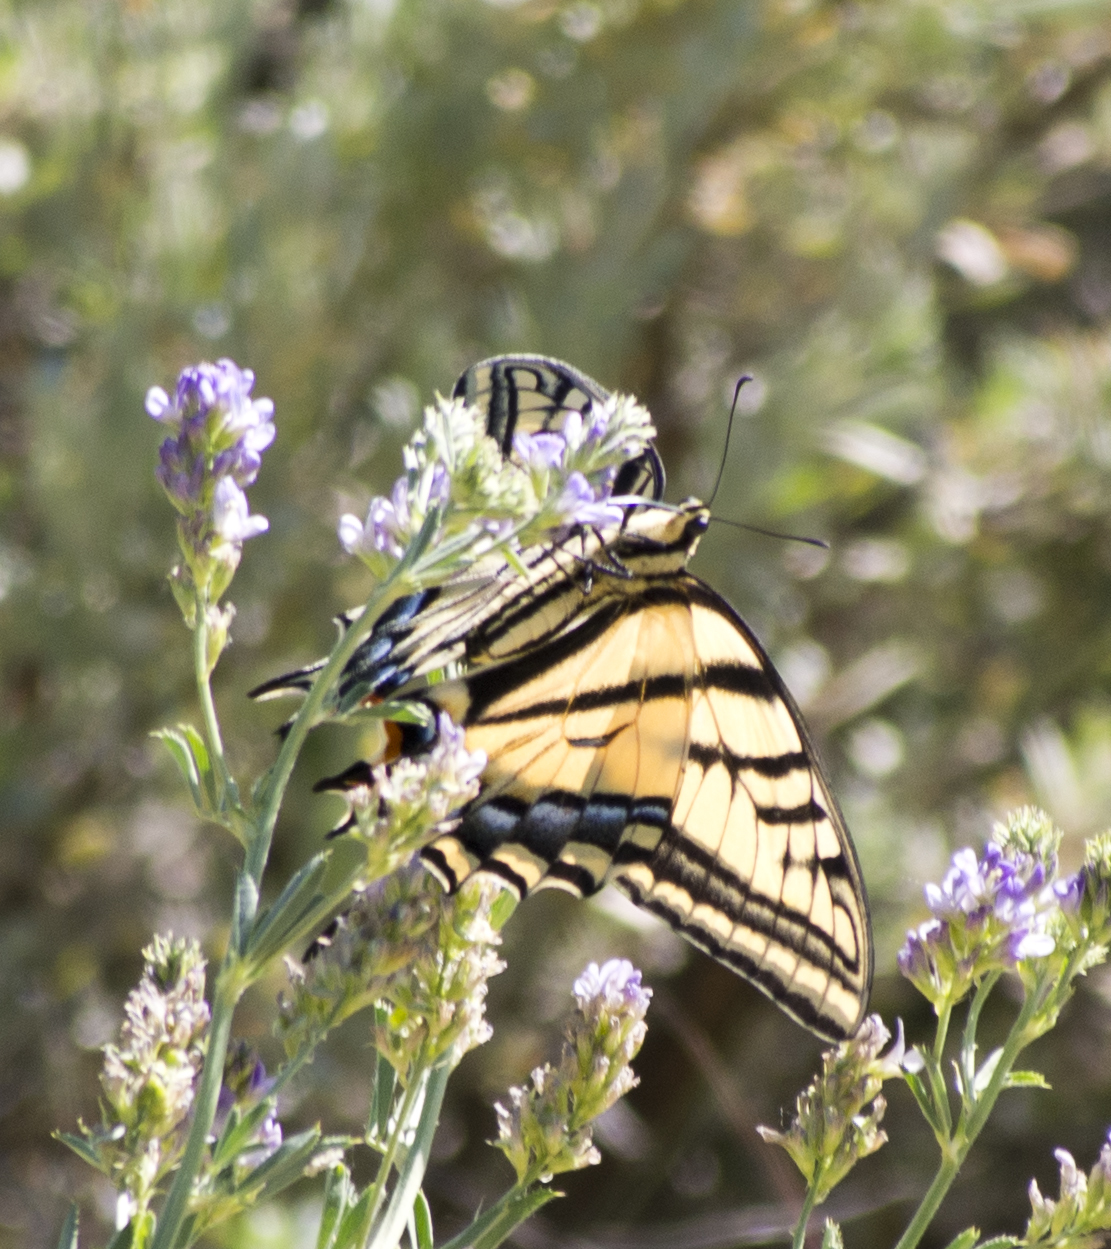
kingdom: Animalia
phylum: Arthropoda
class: Insecta
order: Lepidoptera
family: Papilionidae
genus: Papilio
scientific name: Papilio multicaudata
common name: Two-tailed tiger swallowtail
